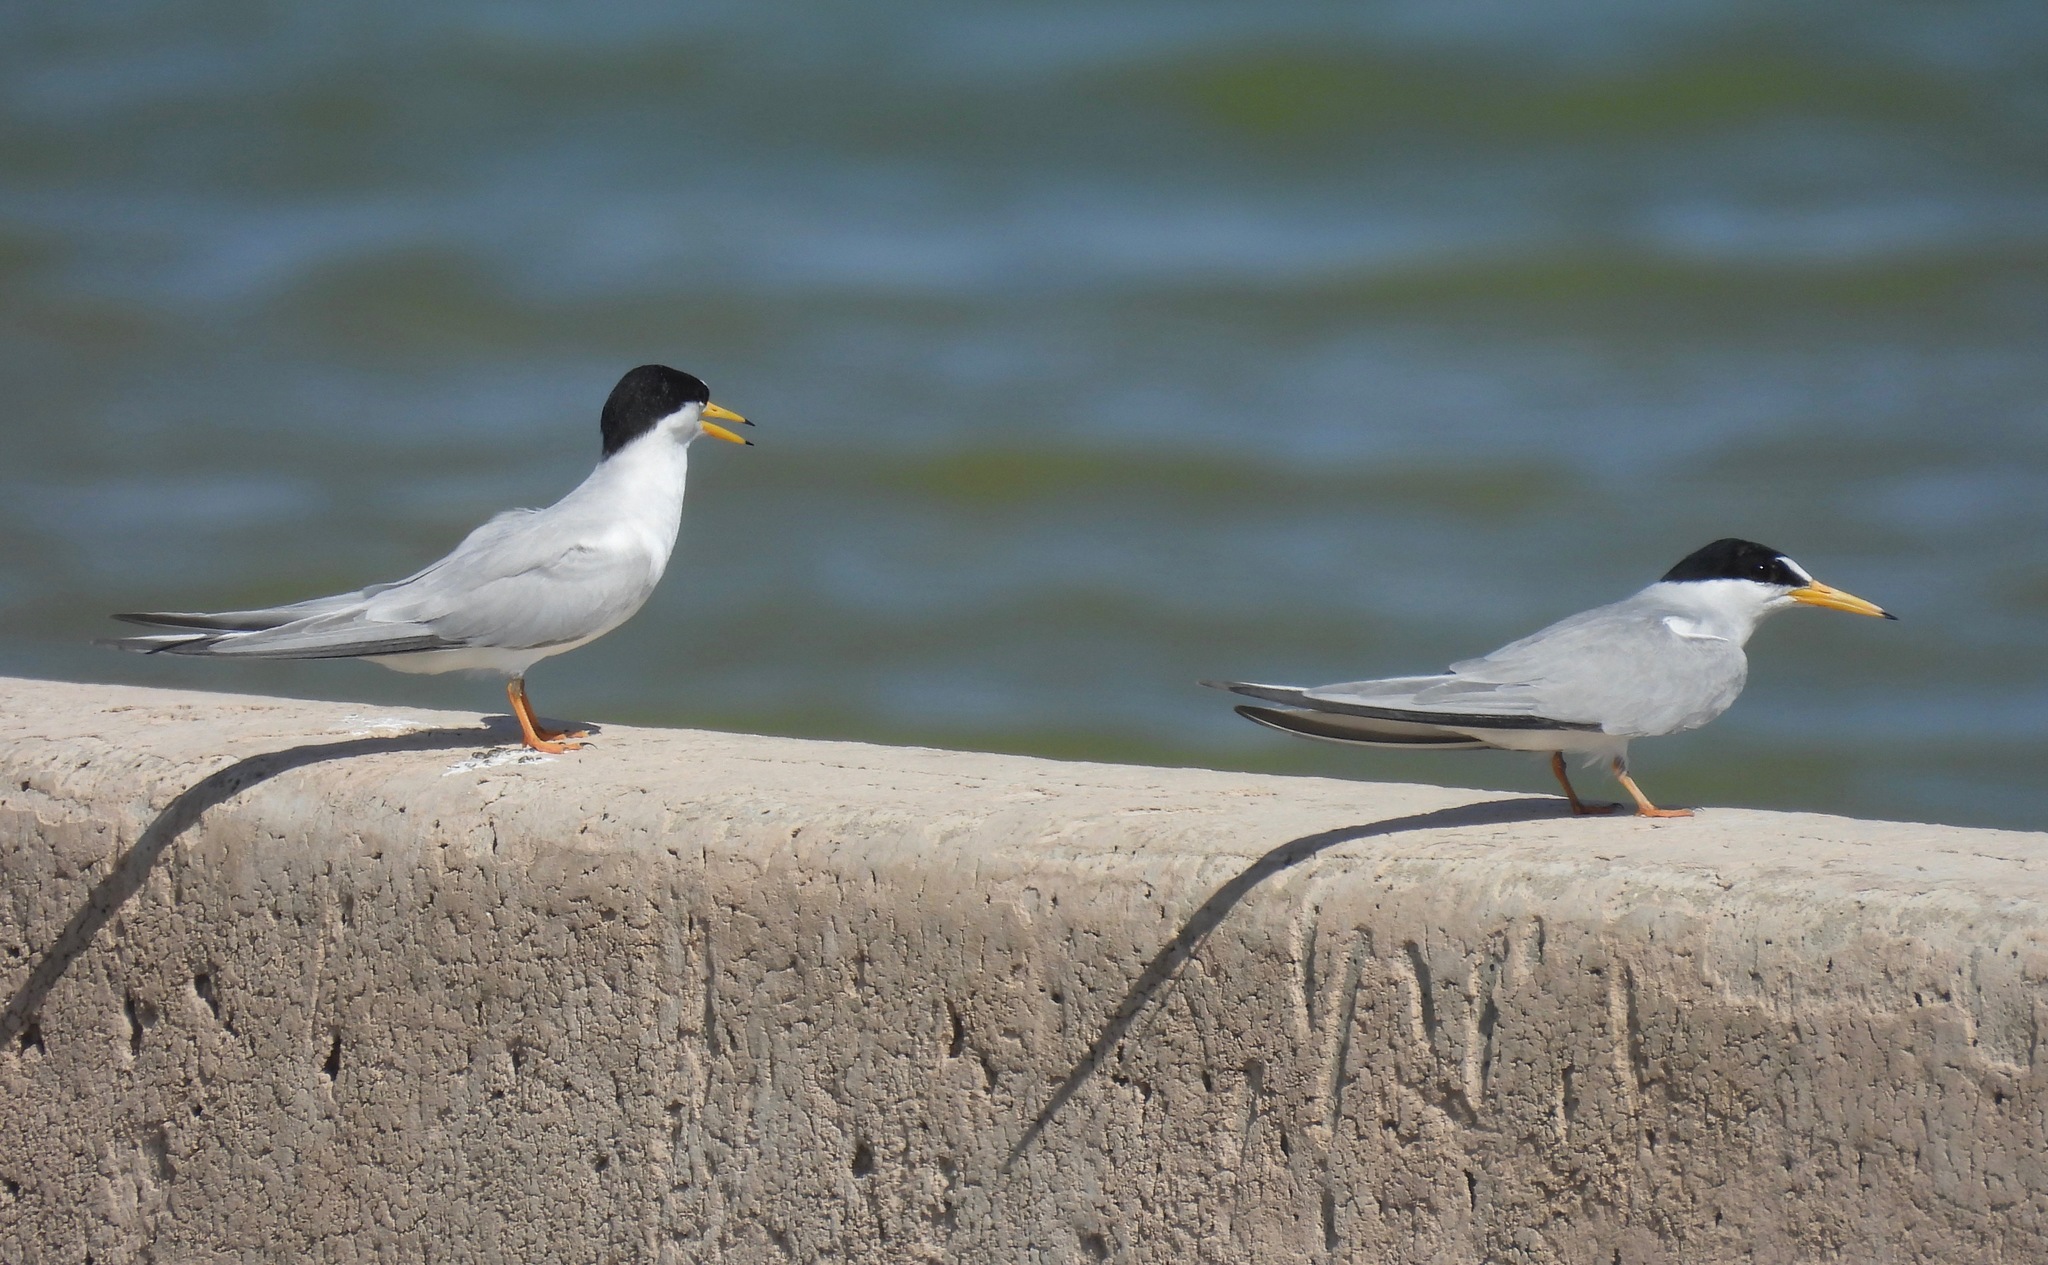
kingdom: Animalia
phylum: Chordata
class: Aves
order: Charadriiformes
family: Laridae
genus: Sternula
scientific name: Sternula antillarum
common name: Least tern
